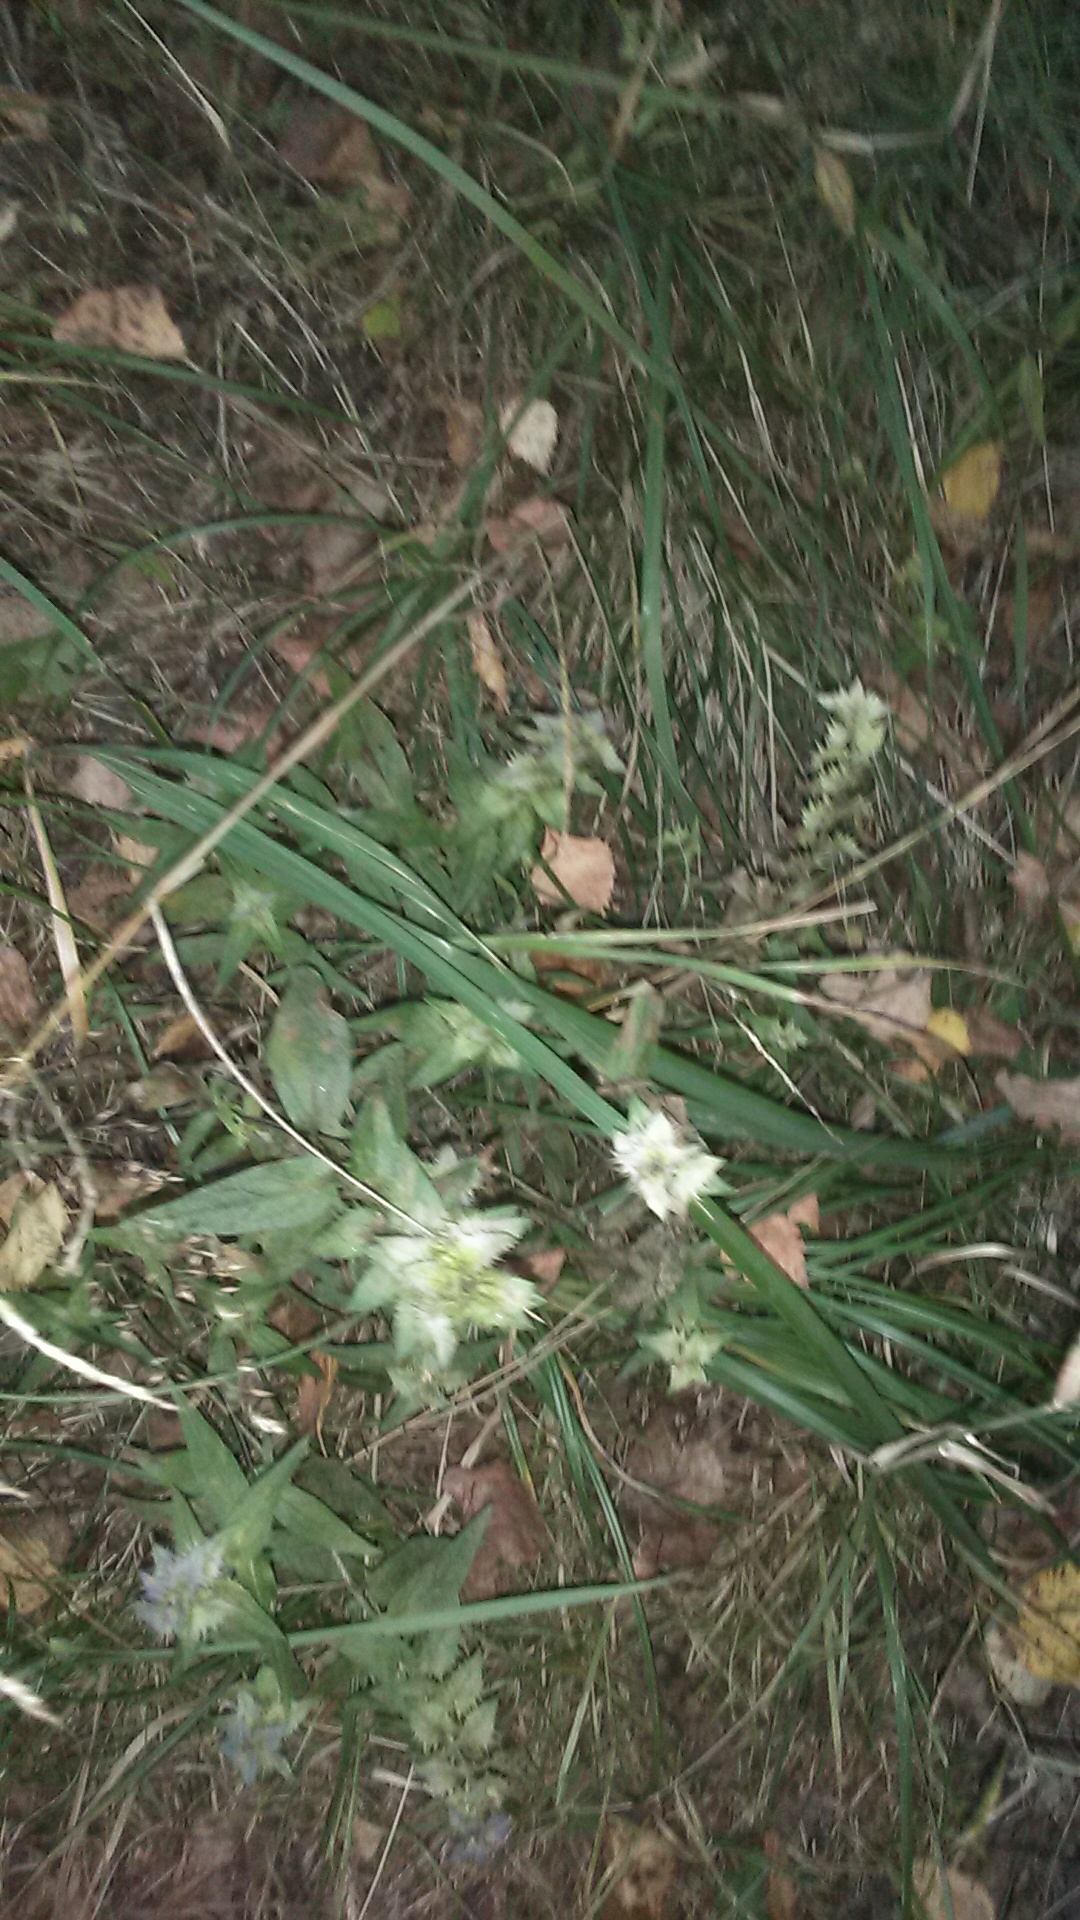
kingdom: Plantae
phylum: Tracheophyta
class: Magnoliopsida
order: Lamiales
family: Orobanchaceae
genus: Melampyrum
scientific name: Melampyrum nemorosum
